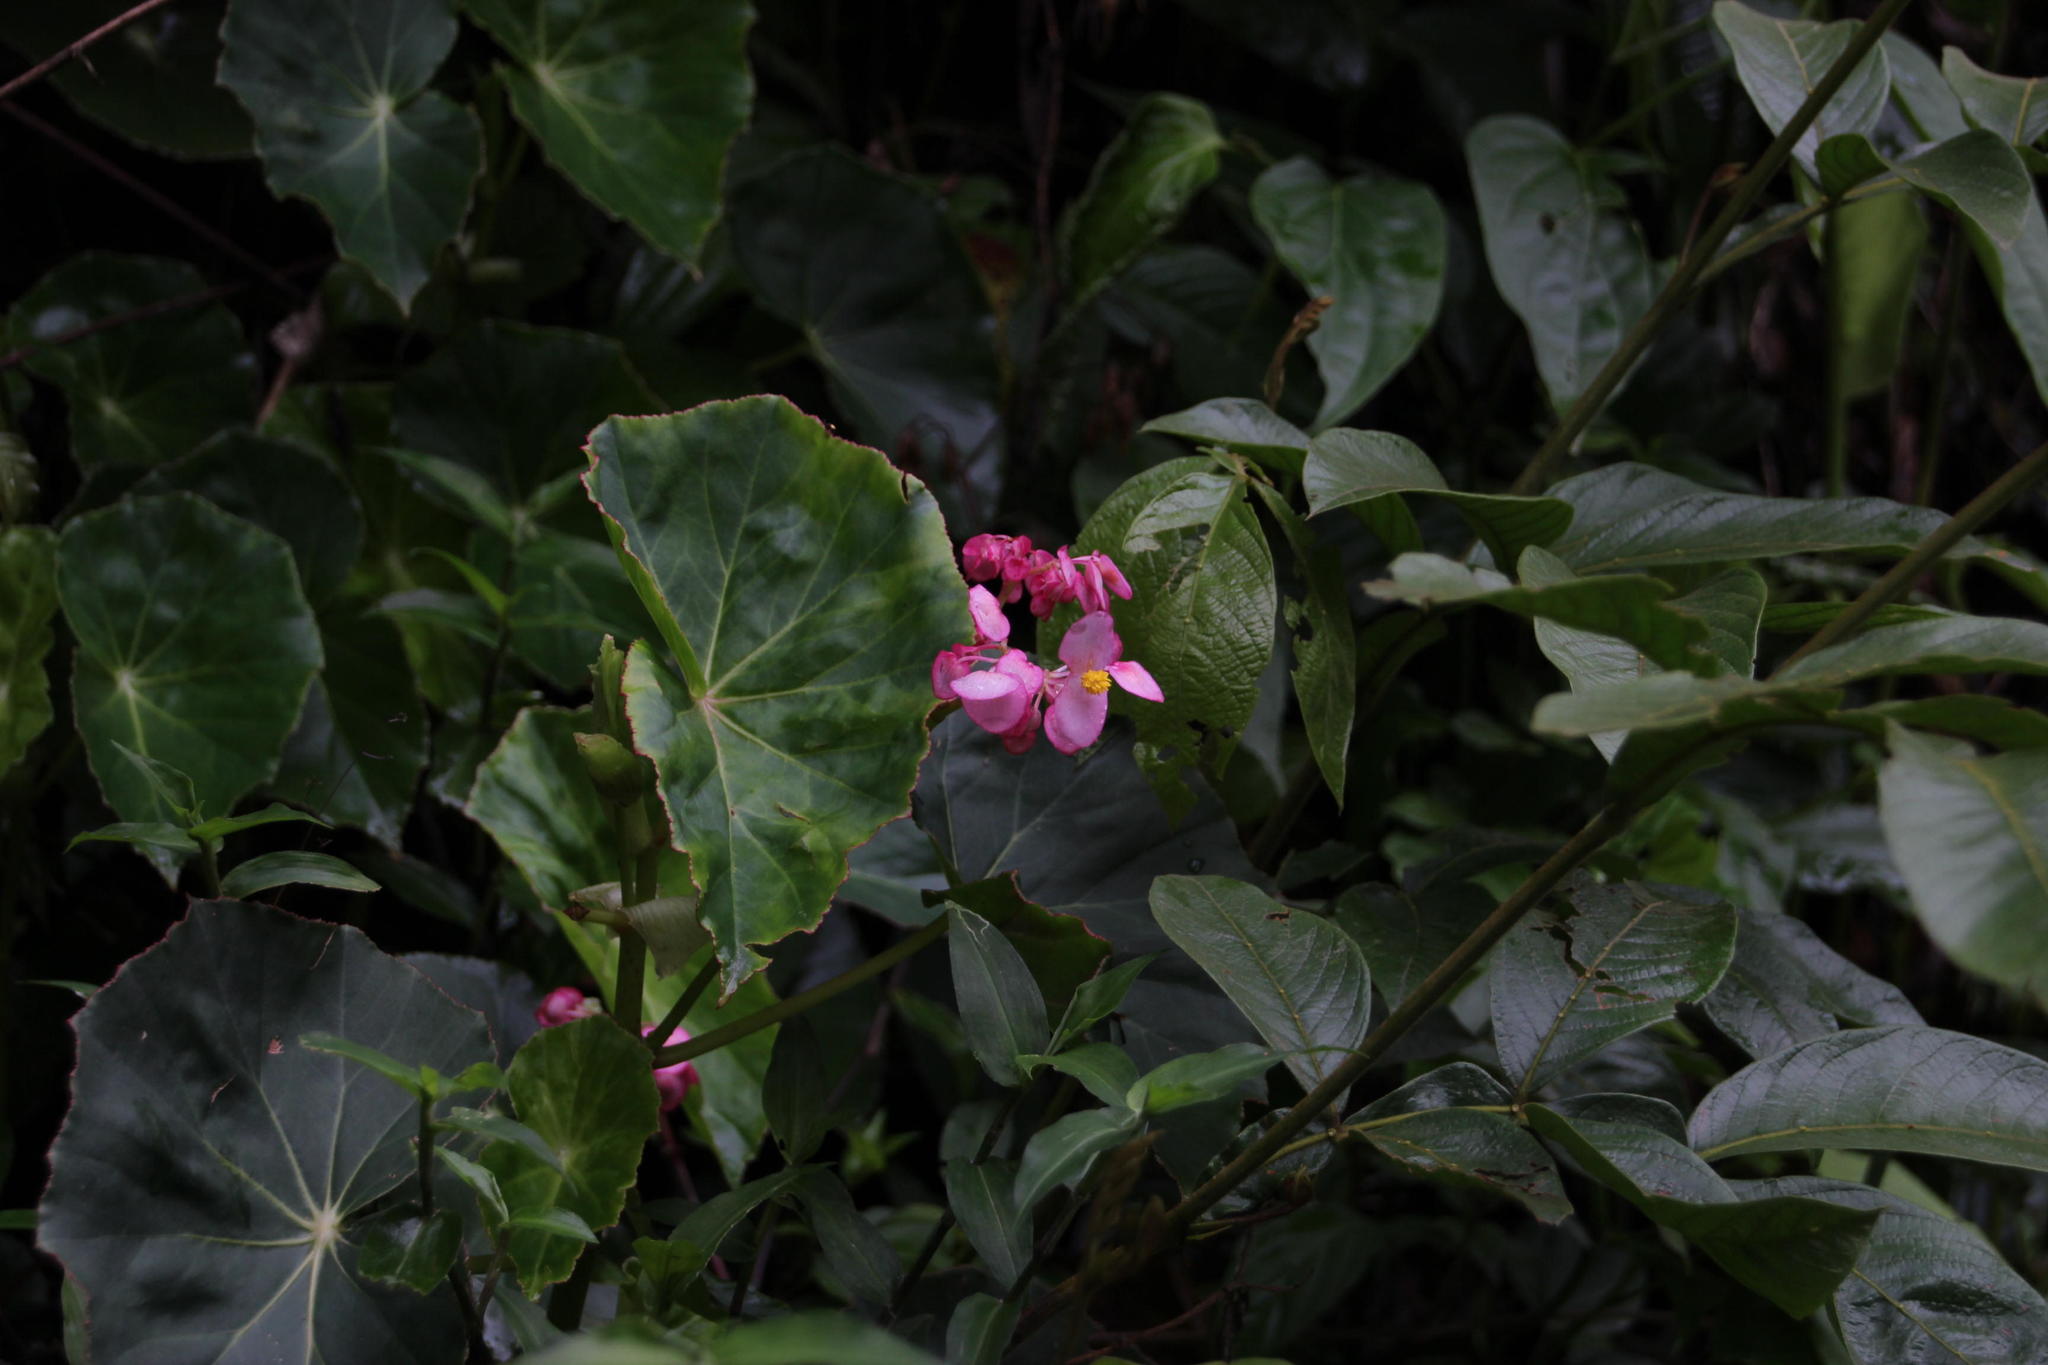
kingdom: Plantae
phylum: Tracheophyta
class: Magnoliopsida
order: Cucurbitales
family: Begoniaceae
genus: Begonia
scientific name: Begonia bracteosa
